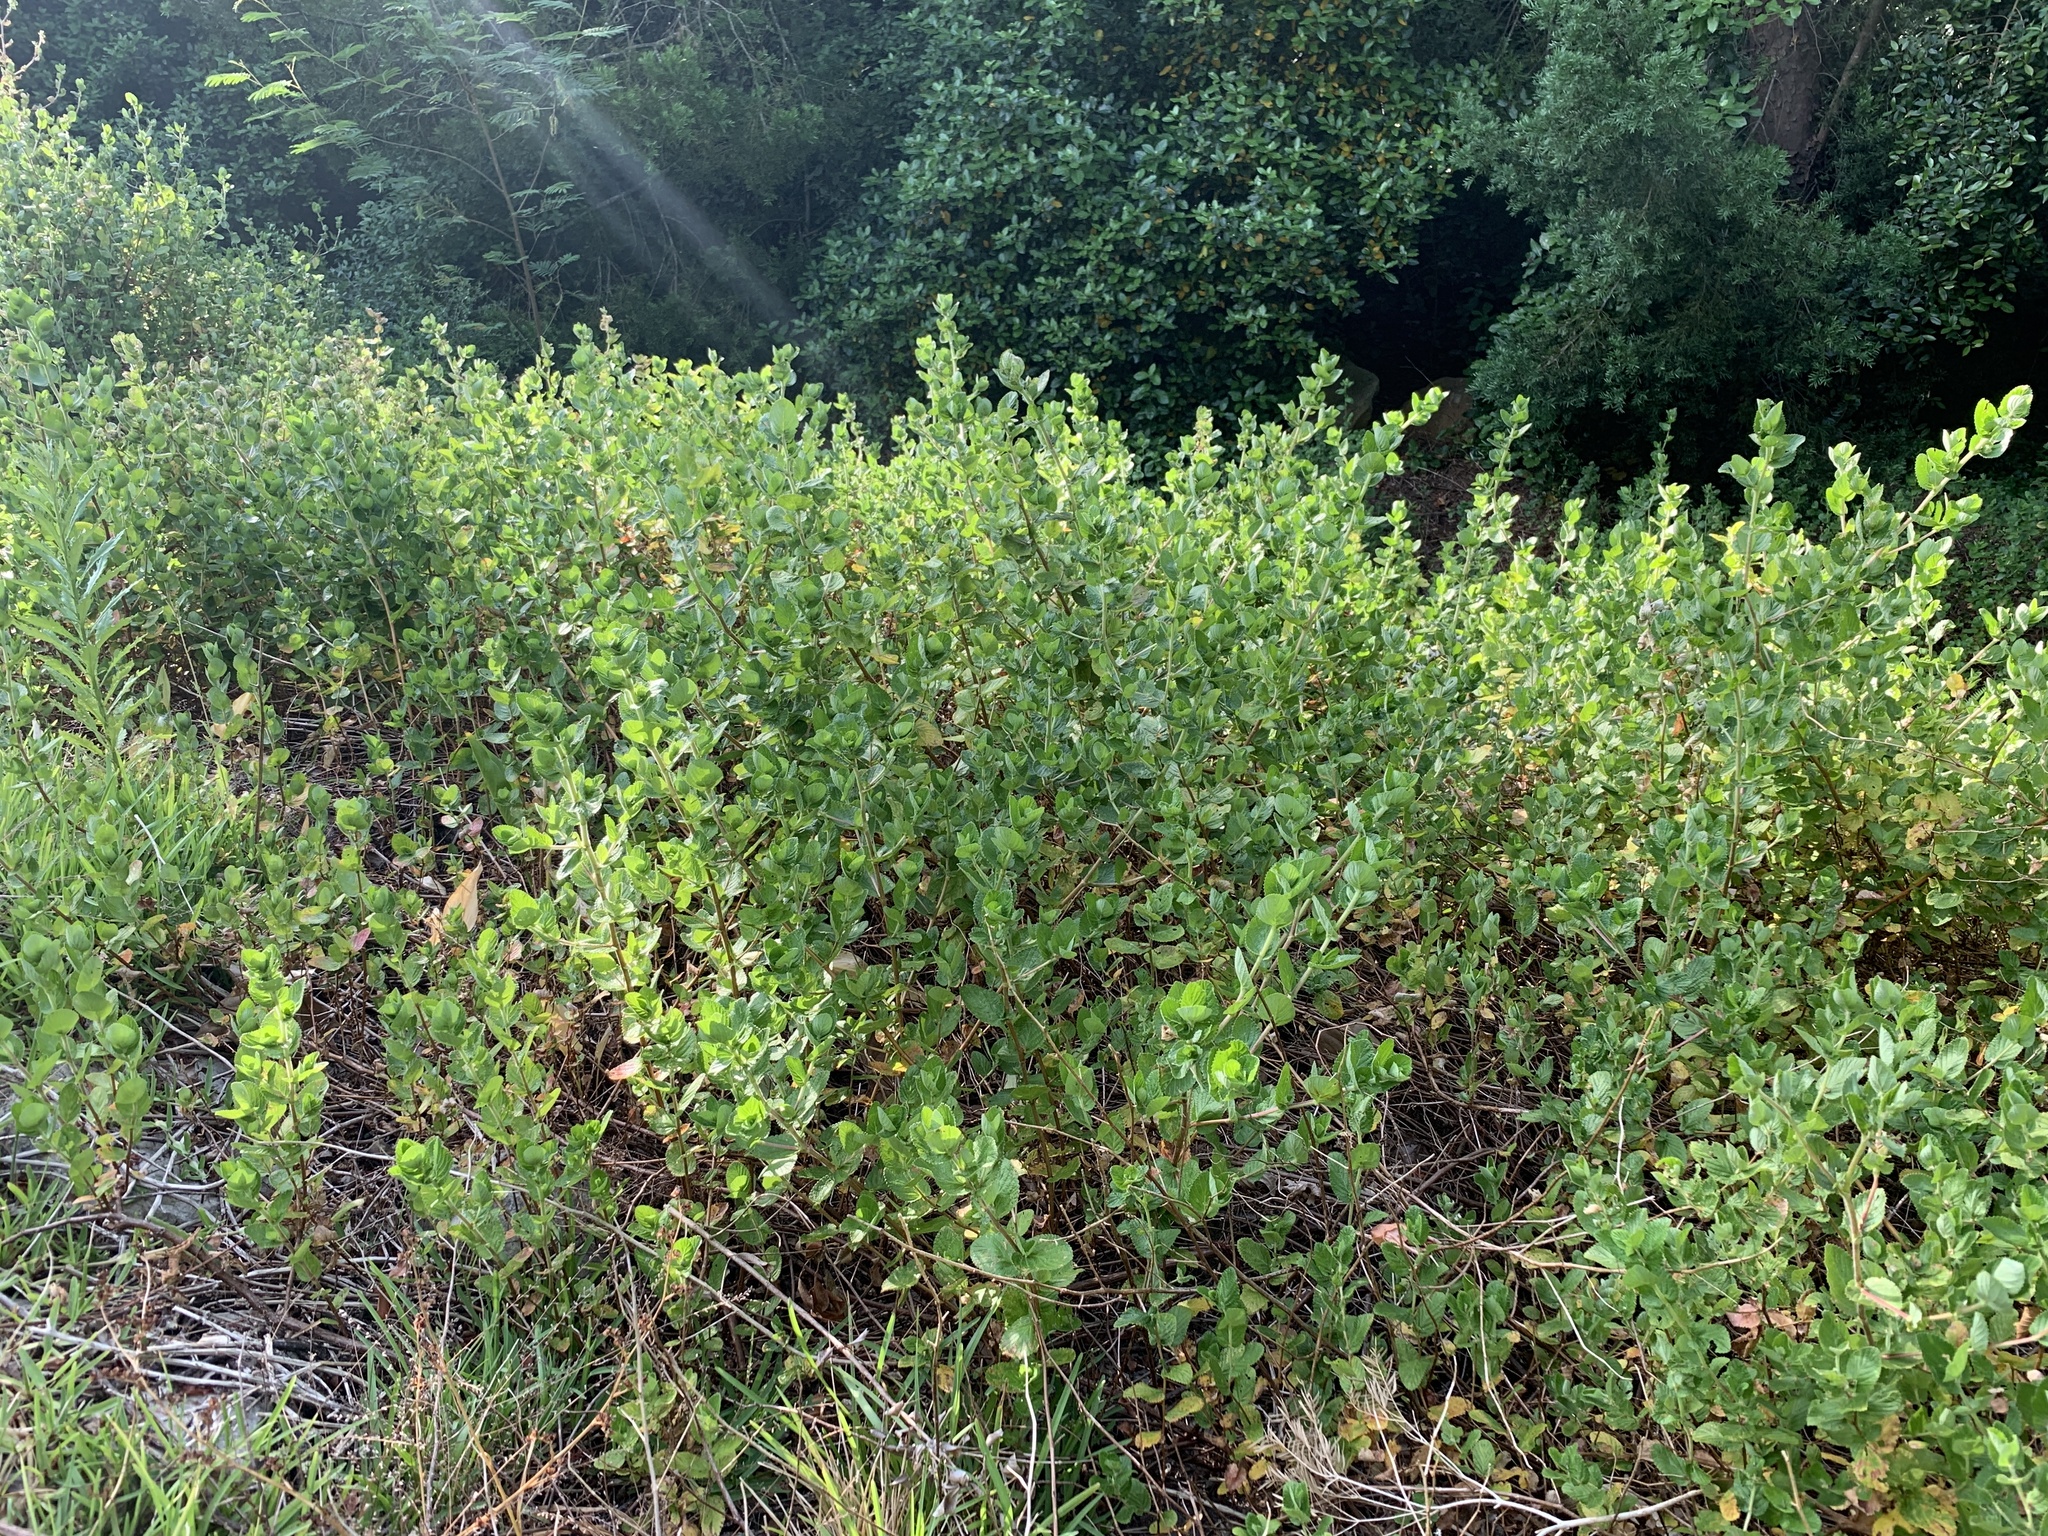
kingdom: Plantae
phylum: Tracheophyta
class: Magnoliopsida
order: Rosales
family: Rosaceae
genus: Cliffortia
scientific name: Cliffortia odorata
